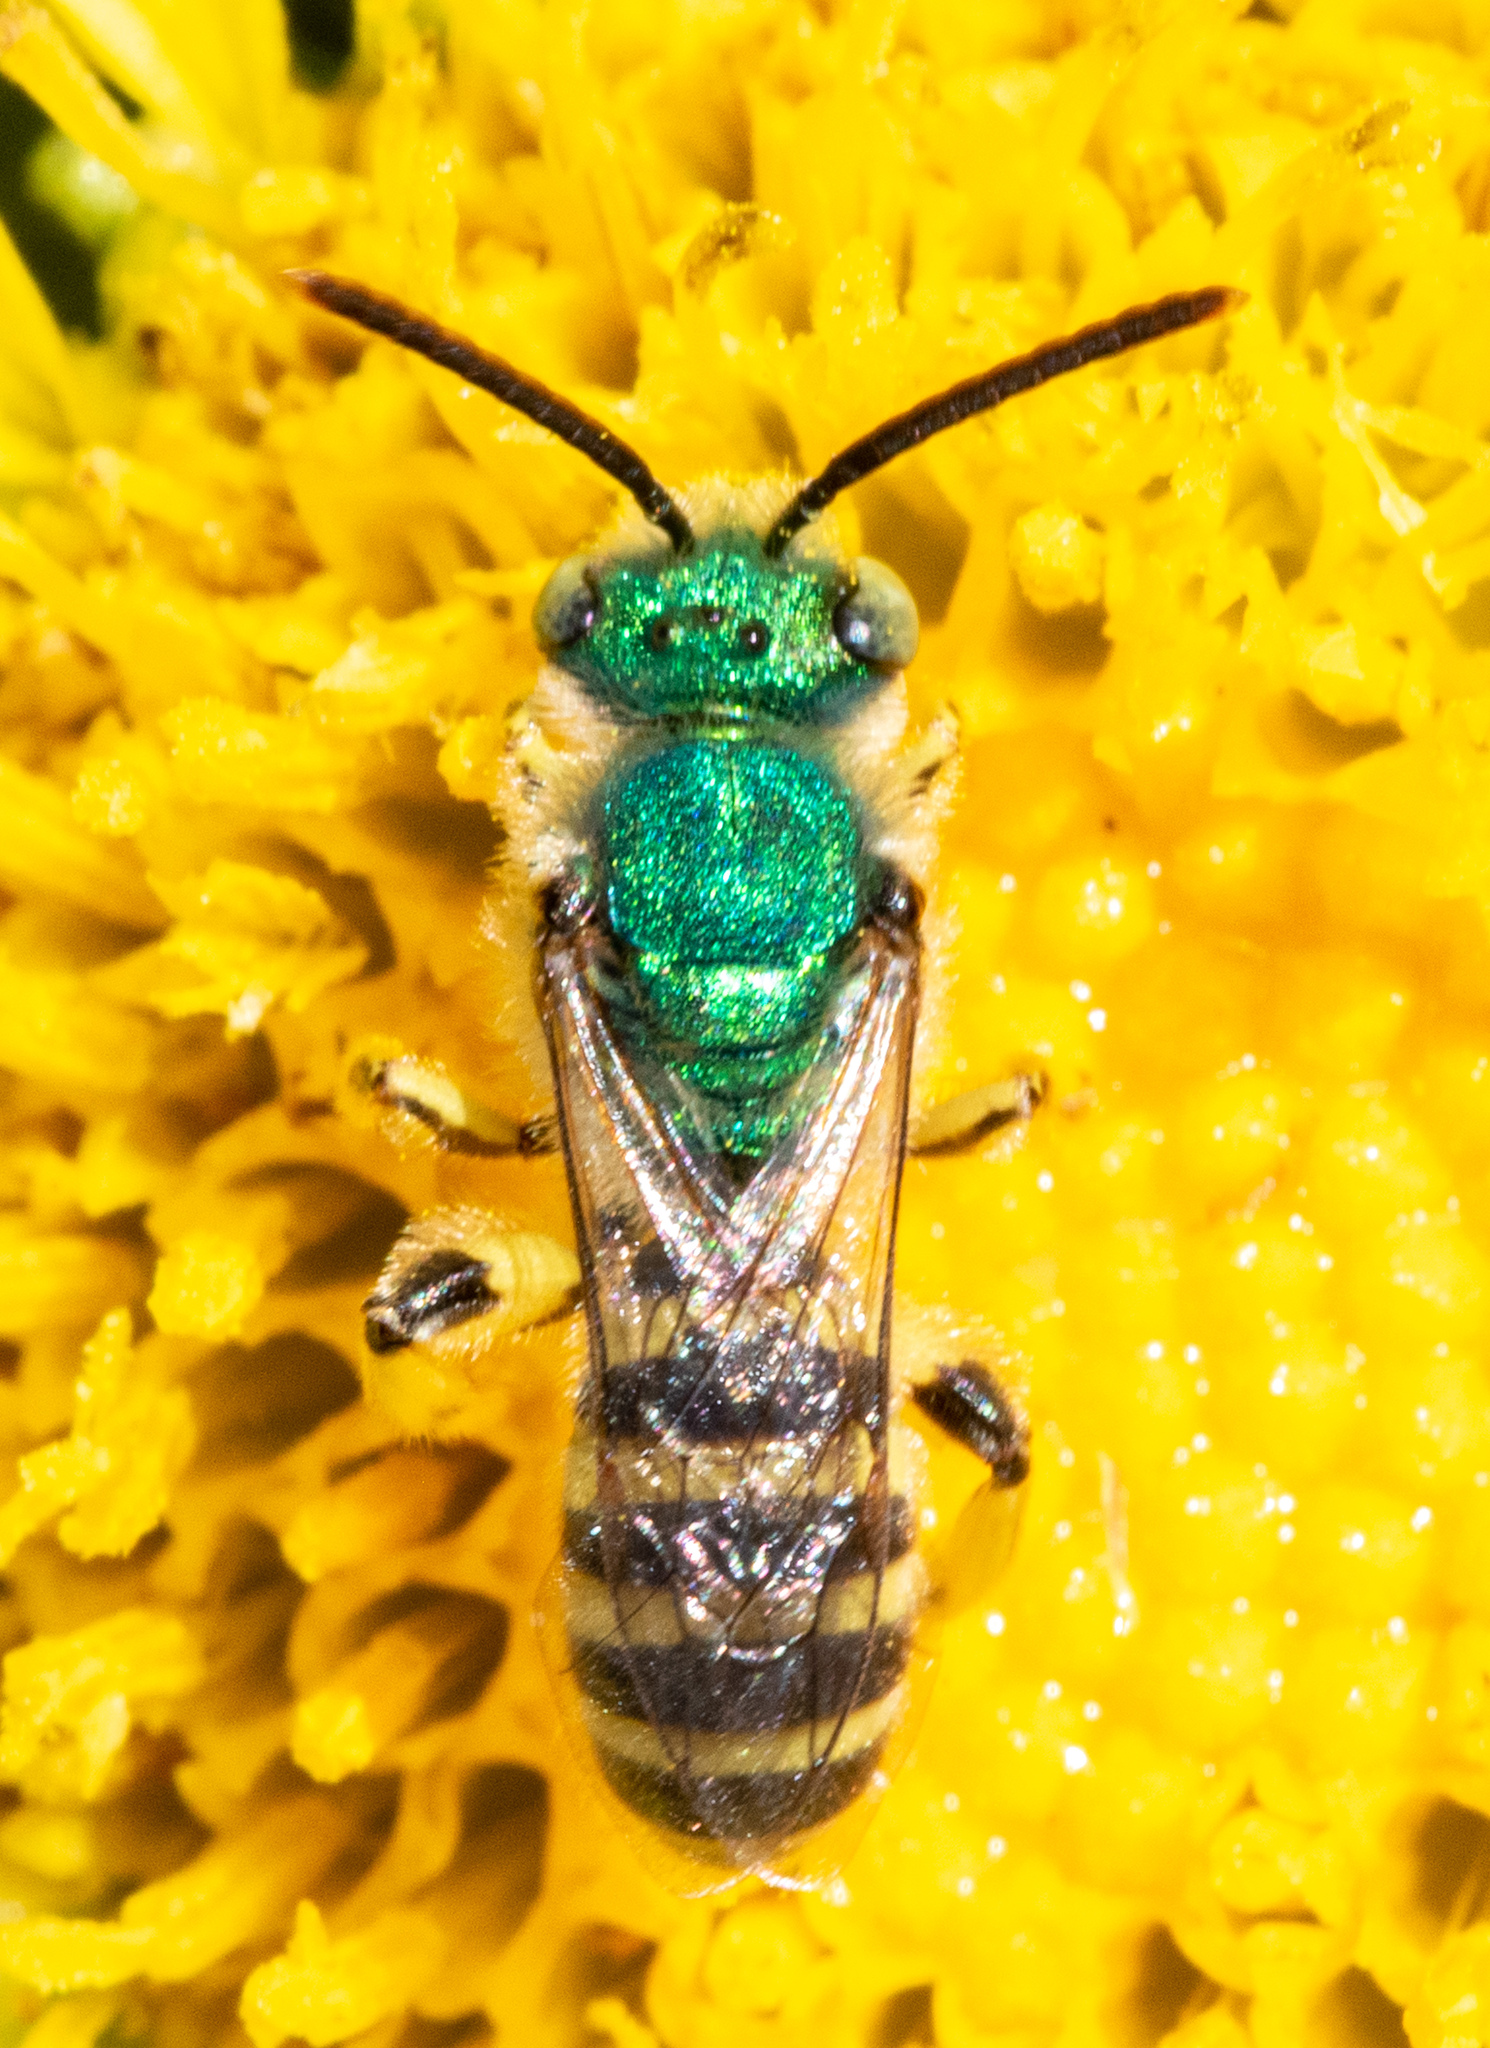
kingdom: Animalia
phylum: Arthropoda
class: Insecta
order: Hymenoptera
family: Halictidae
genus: Agapostemon
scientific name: Agapostemon texanus
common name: Texas striped sweat bee
